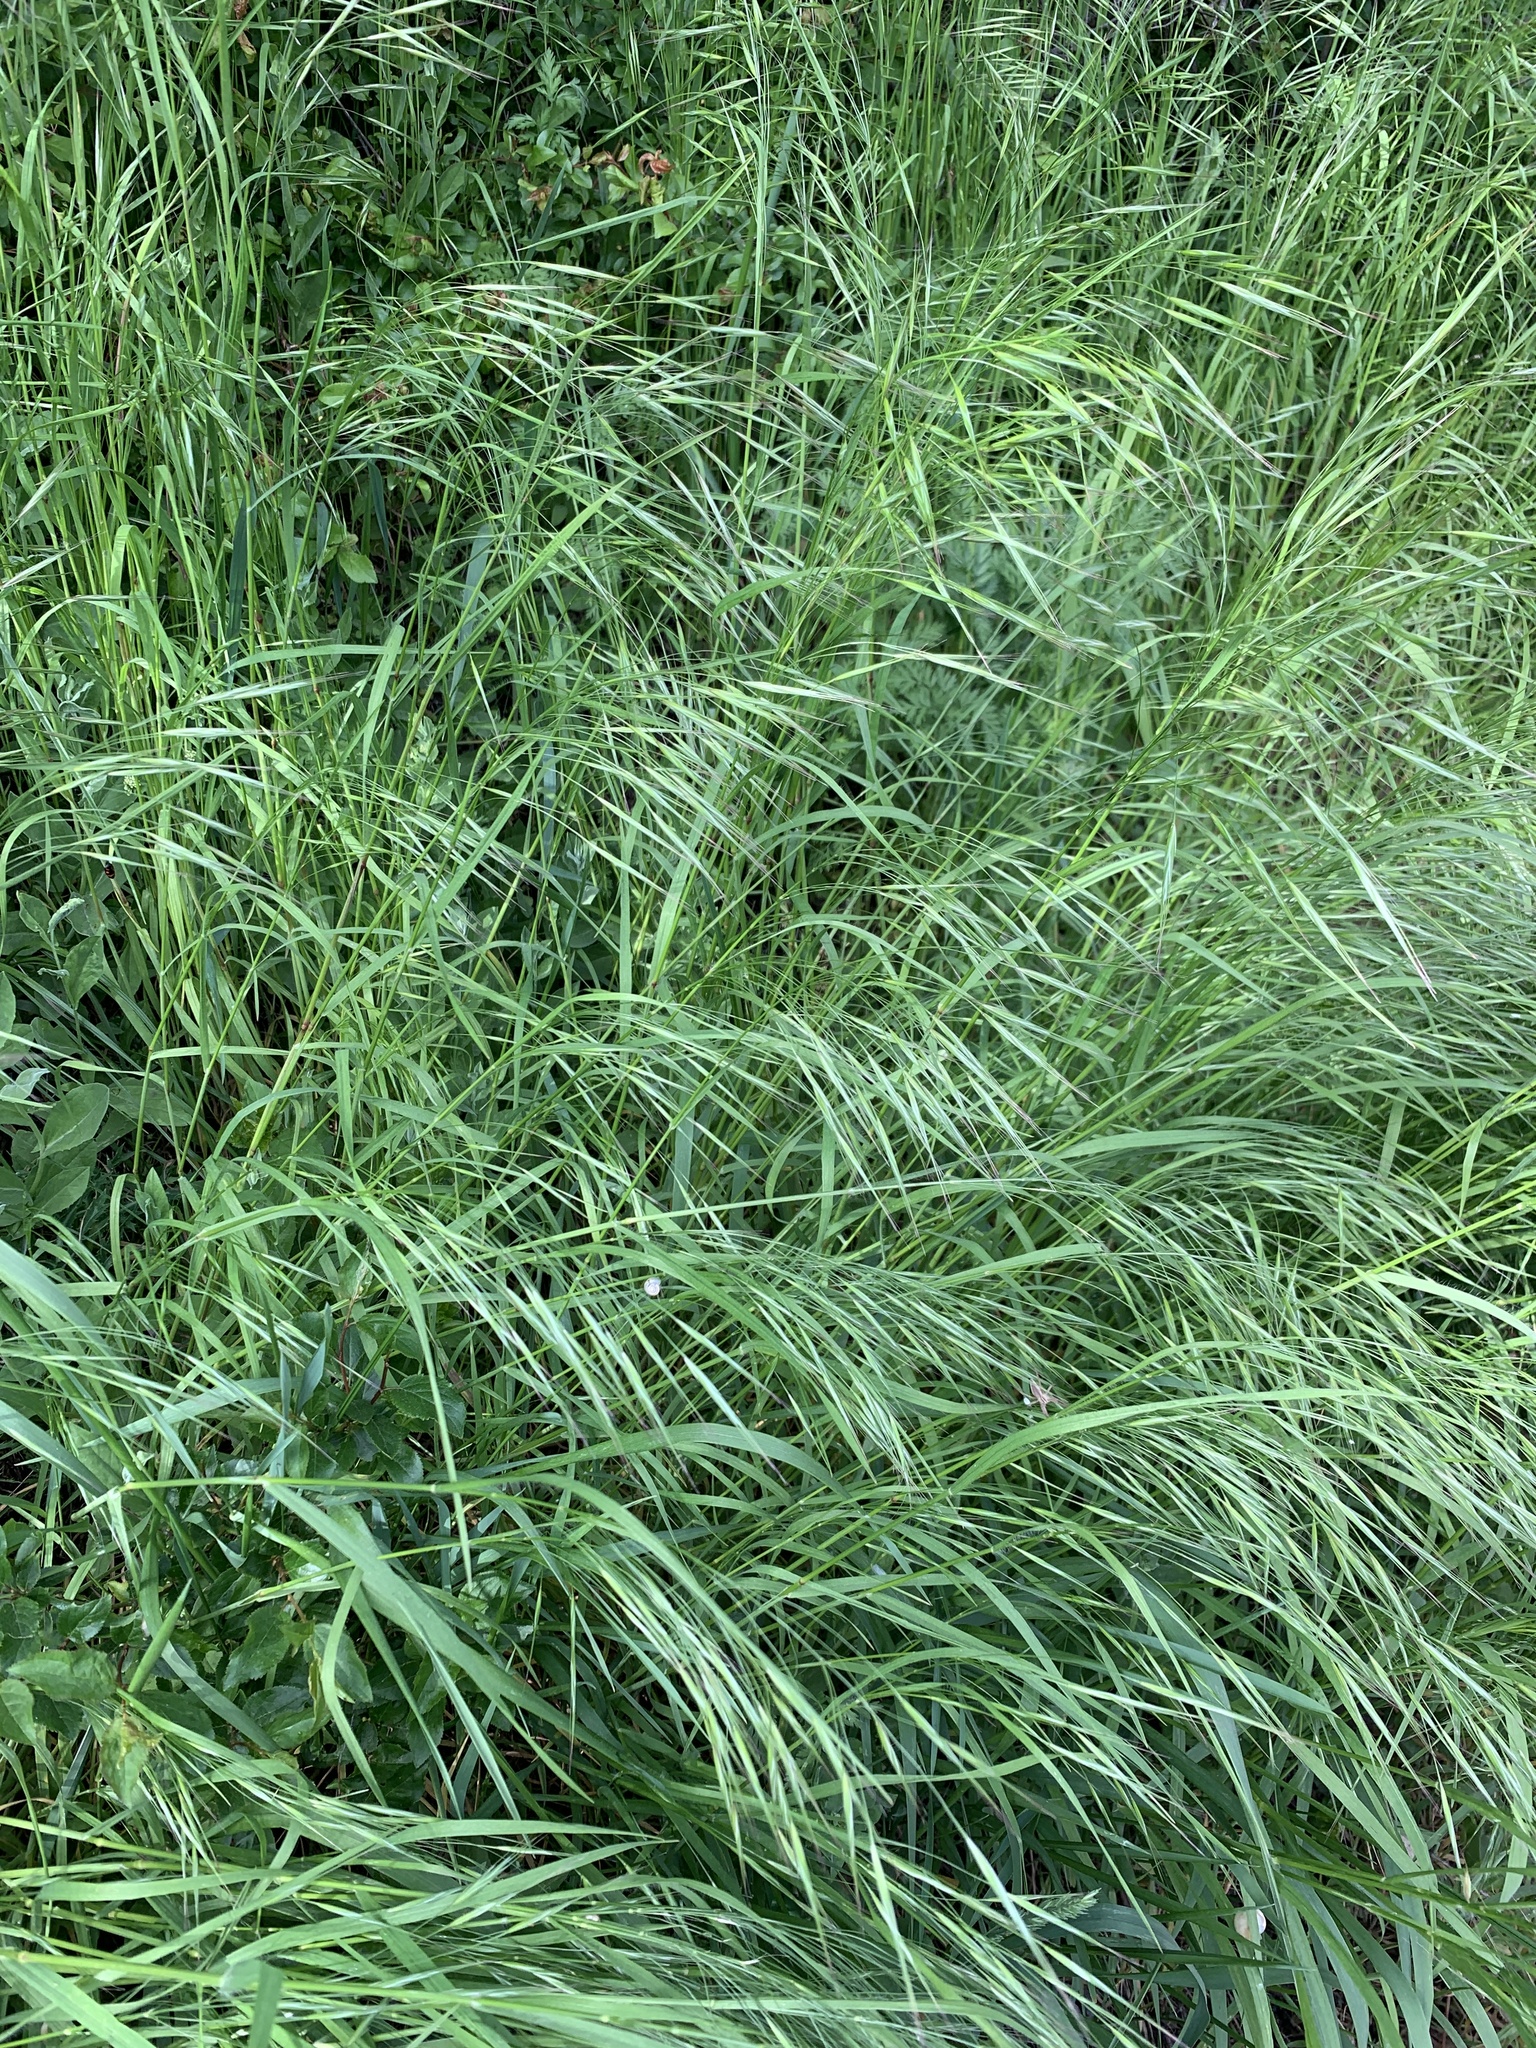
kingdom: Plantae
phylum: Tracheophyta
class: Liliopsida
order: Poales
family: Poaceae
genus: Bromus
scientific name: Bromus sterilis
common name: Poverty brome
